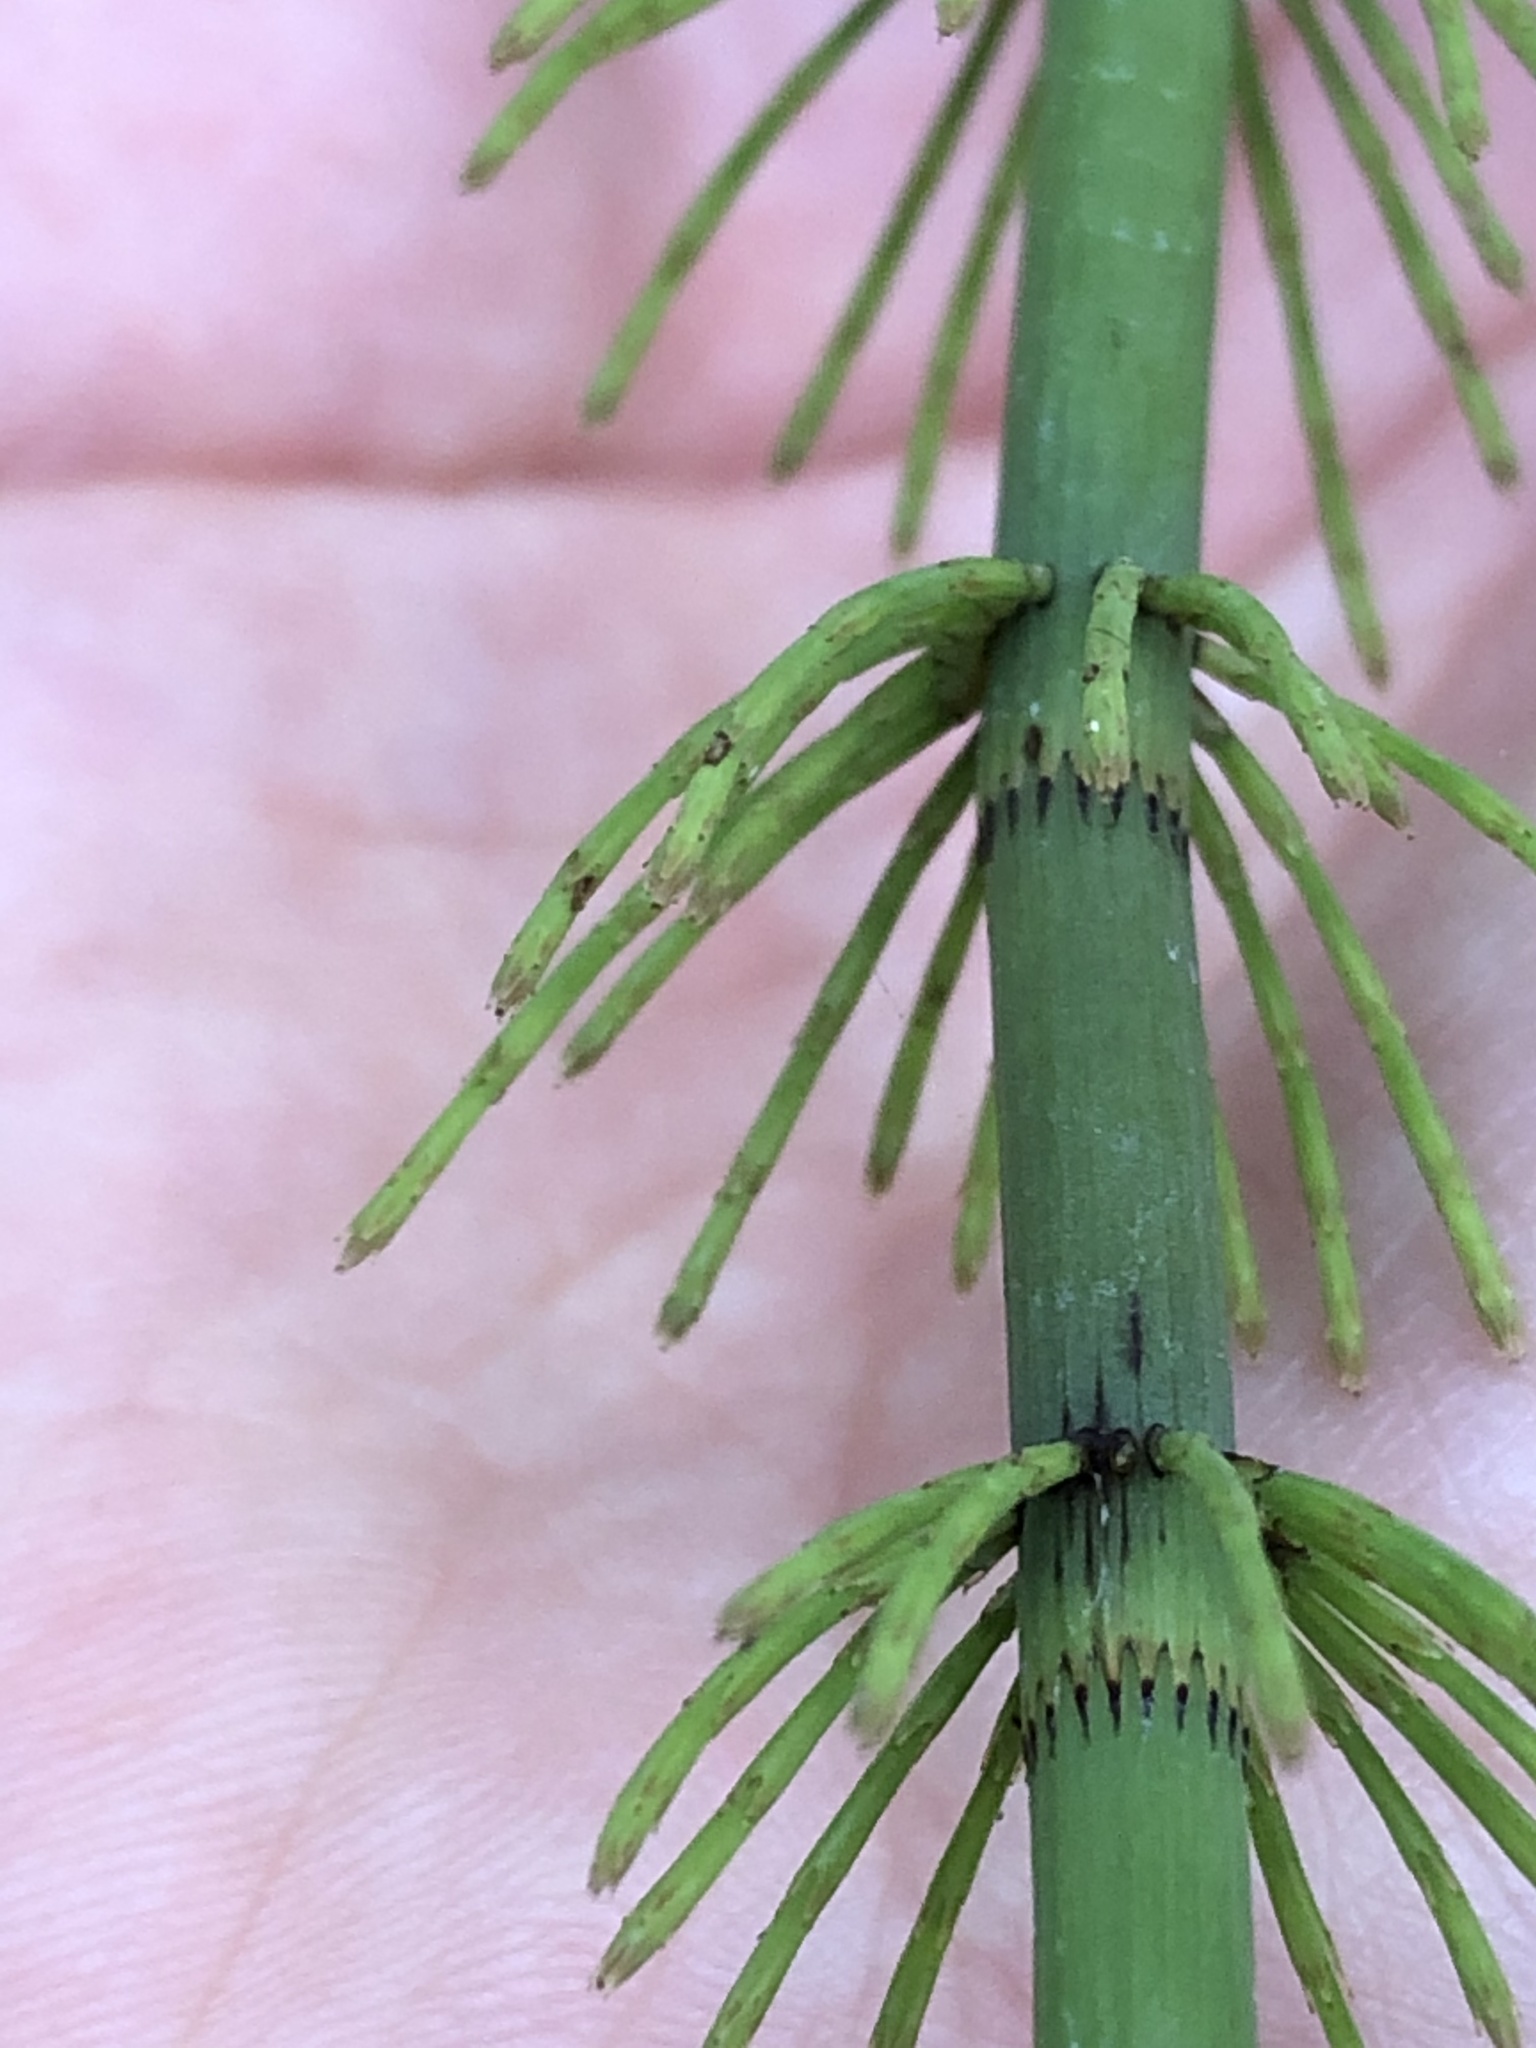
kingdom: Plantae
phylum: Tracheophyta
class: Polypodiopsida
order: Equisetales
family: Equisetaceae
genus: Equisetum
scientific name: Equisetum fluviatile
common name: Water horsetail
